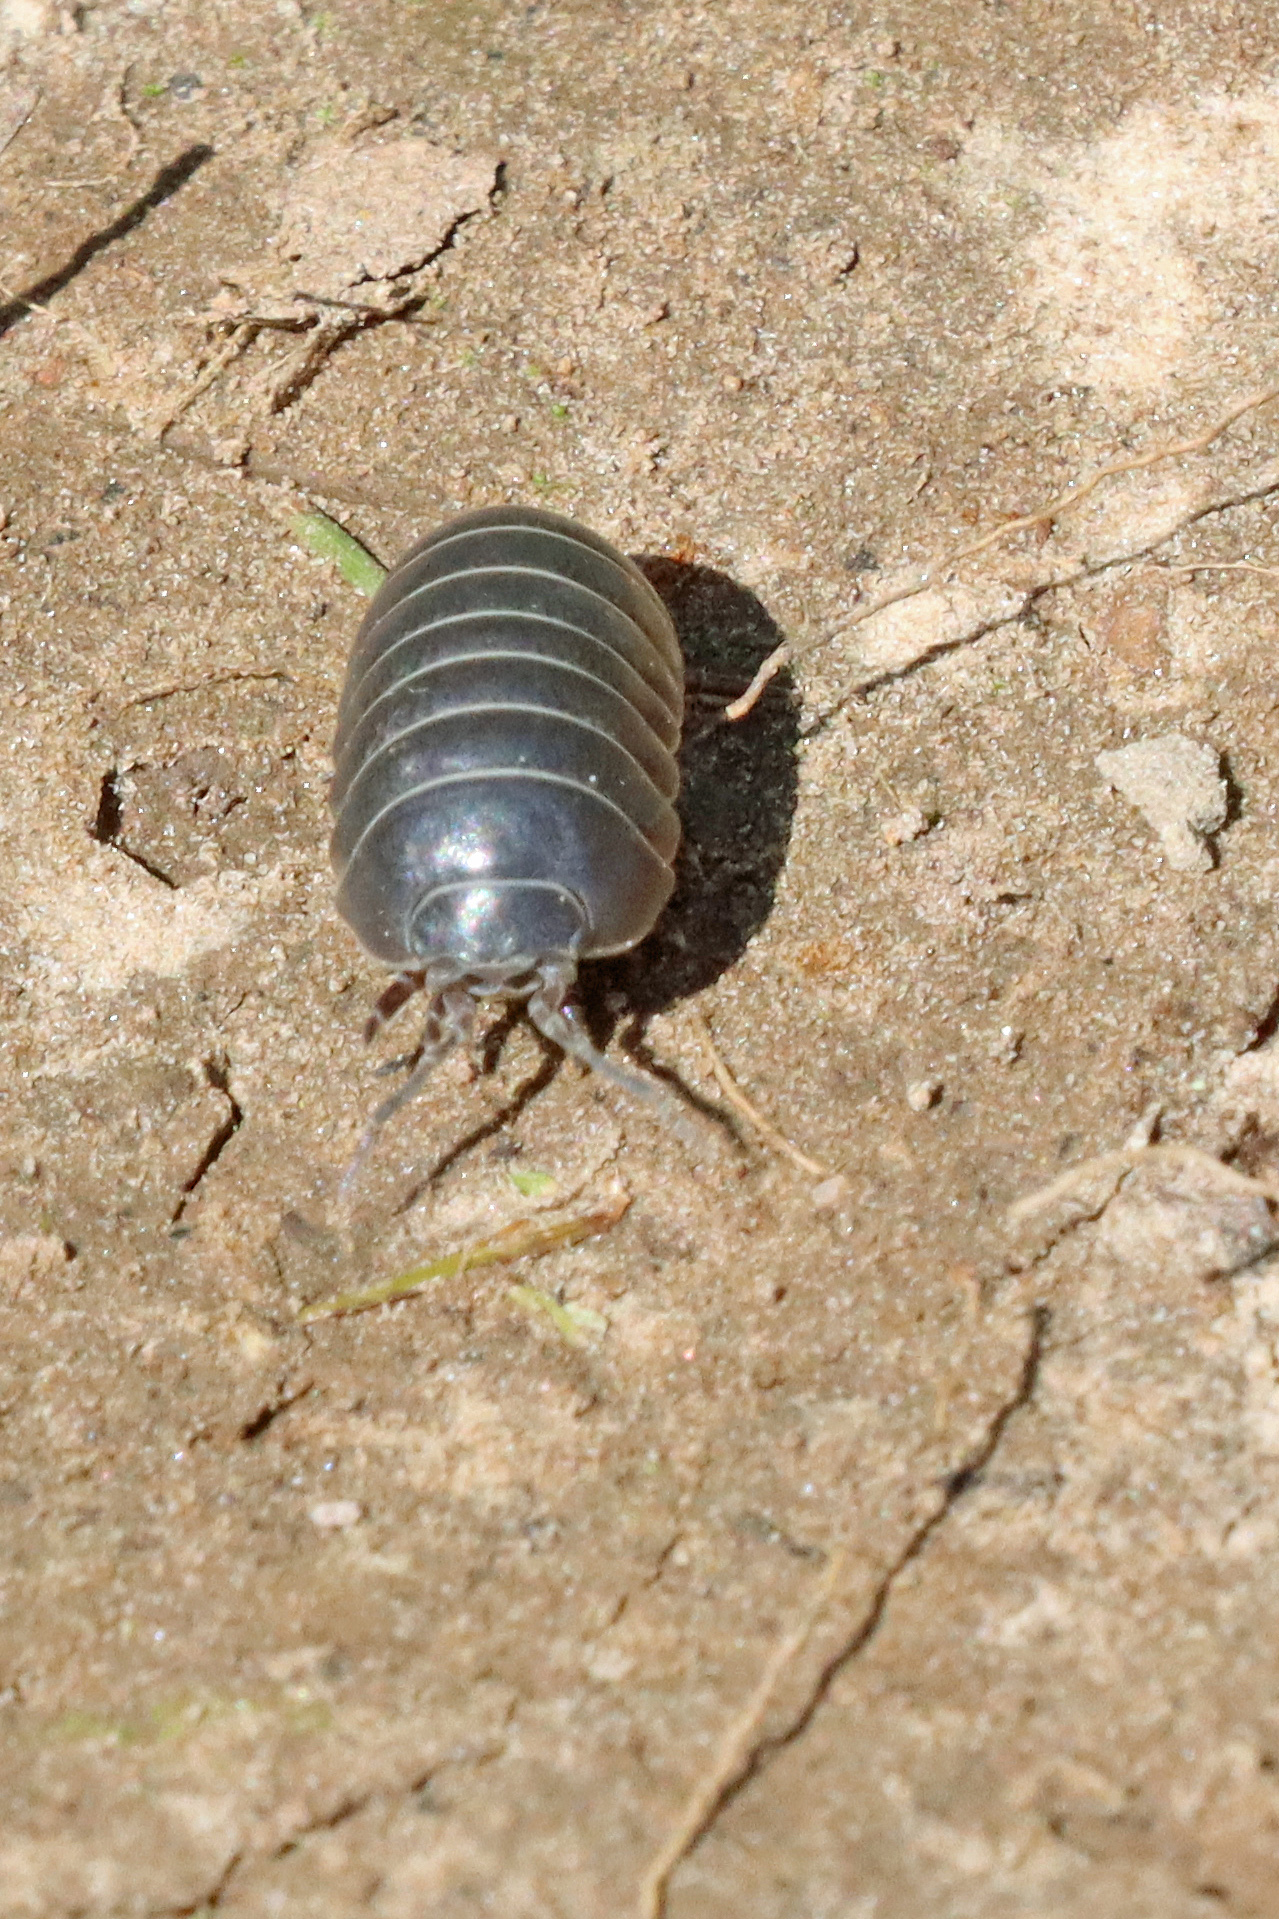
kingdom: Animalia
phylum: Arthropoda
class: Malacostraca
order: Isopoda
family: Armadillidiidae
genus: Armadillidium
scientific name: Armadillidium vulgare
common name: Common pill woodlouse
